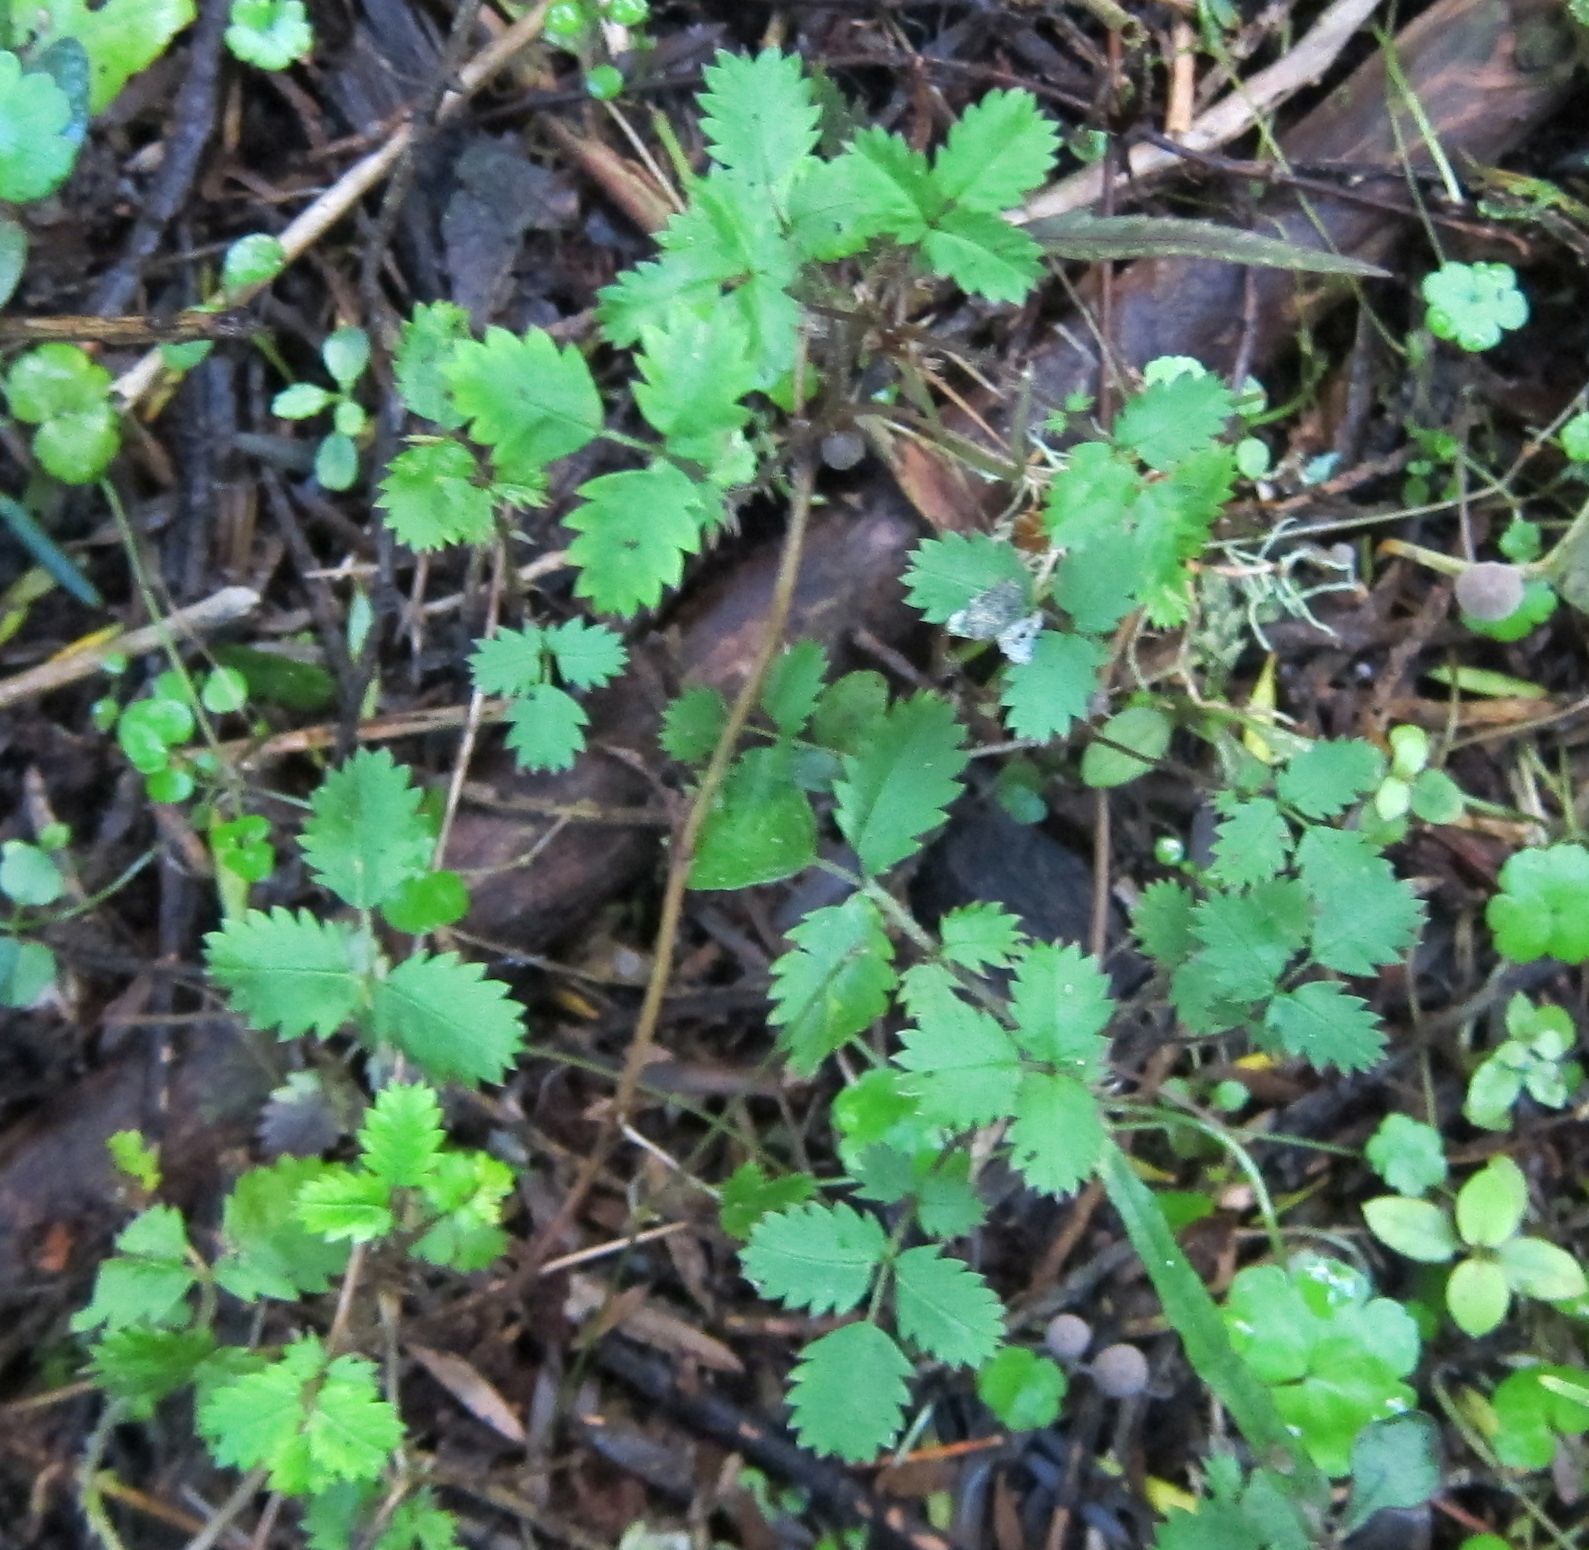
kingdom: Plantae
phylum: Tracheophyta
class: Magnoliopsida
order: Rosales
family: Rosaceae
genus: Acaena
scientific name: Acaena juvenca
